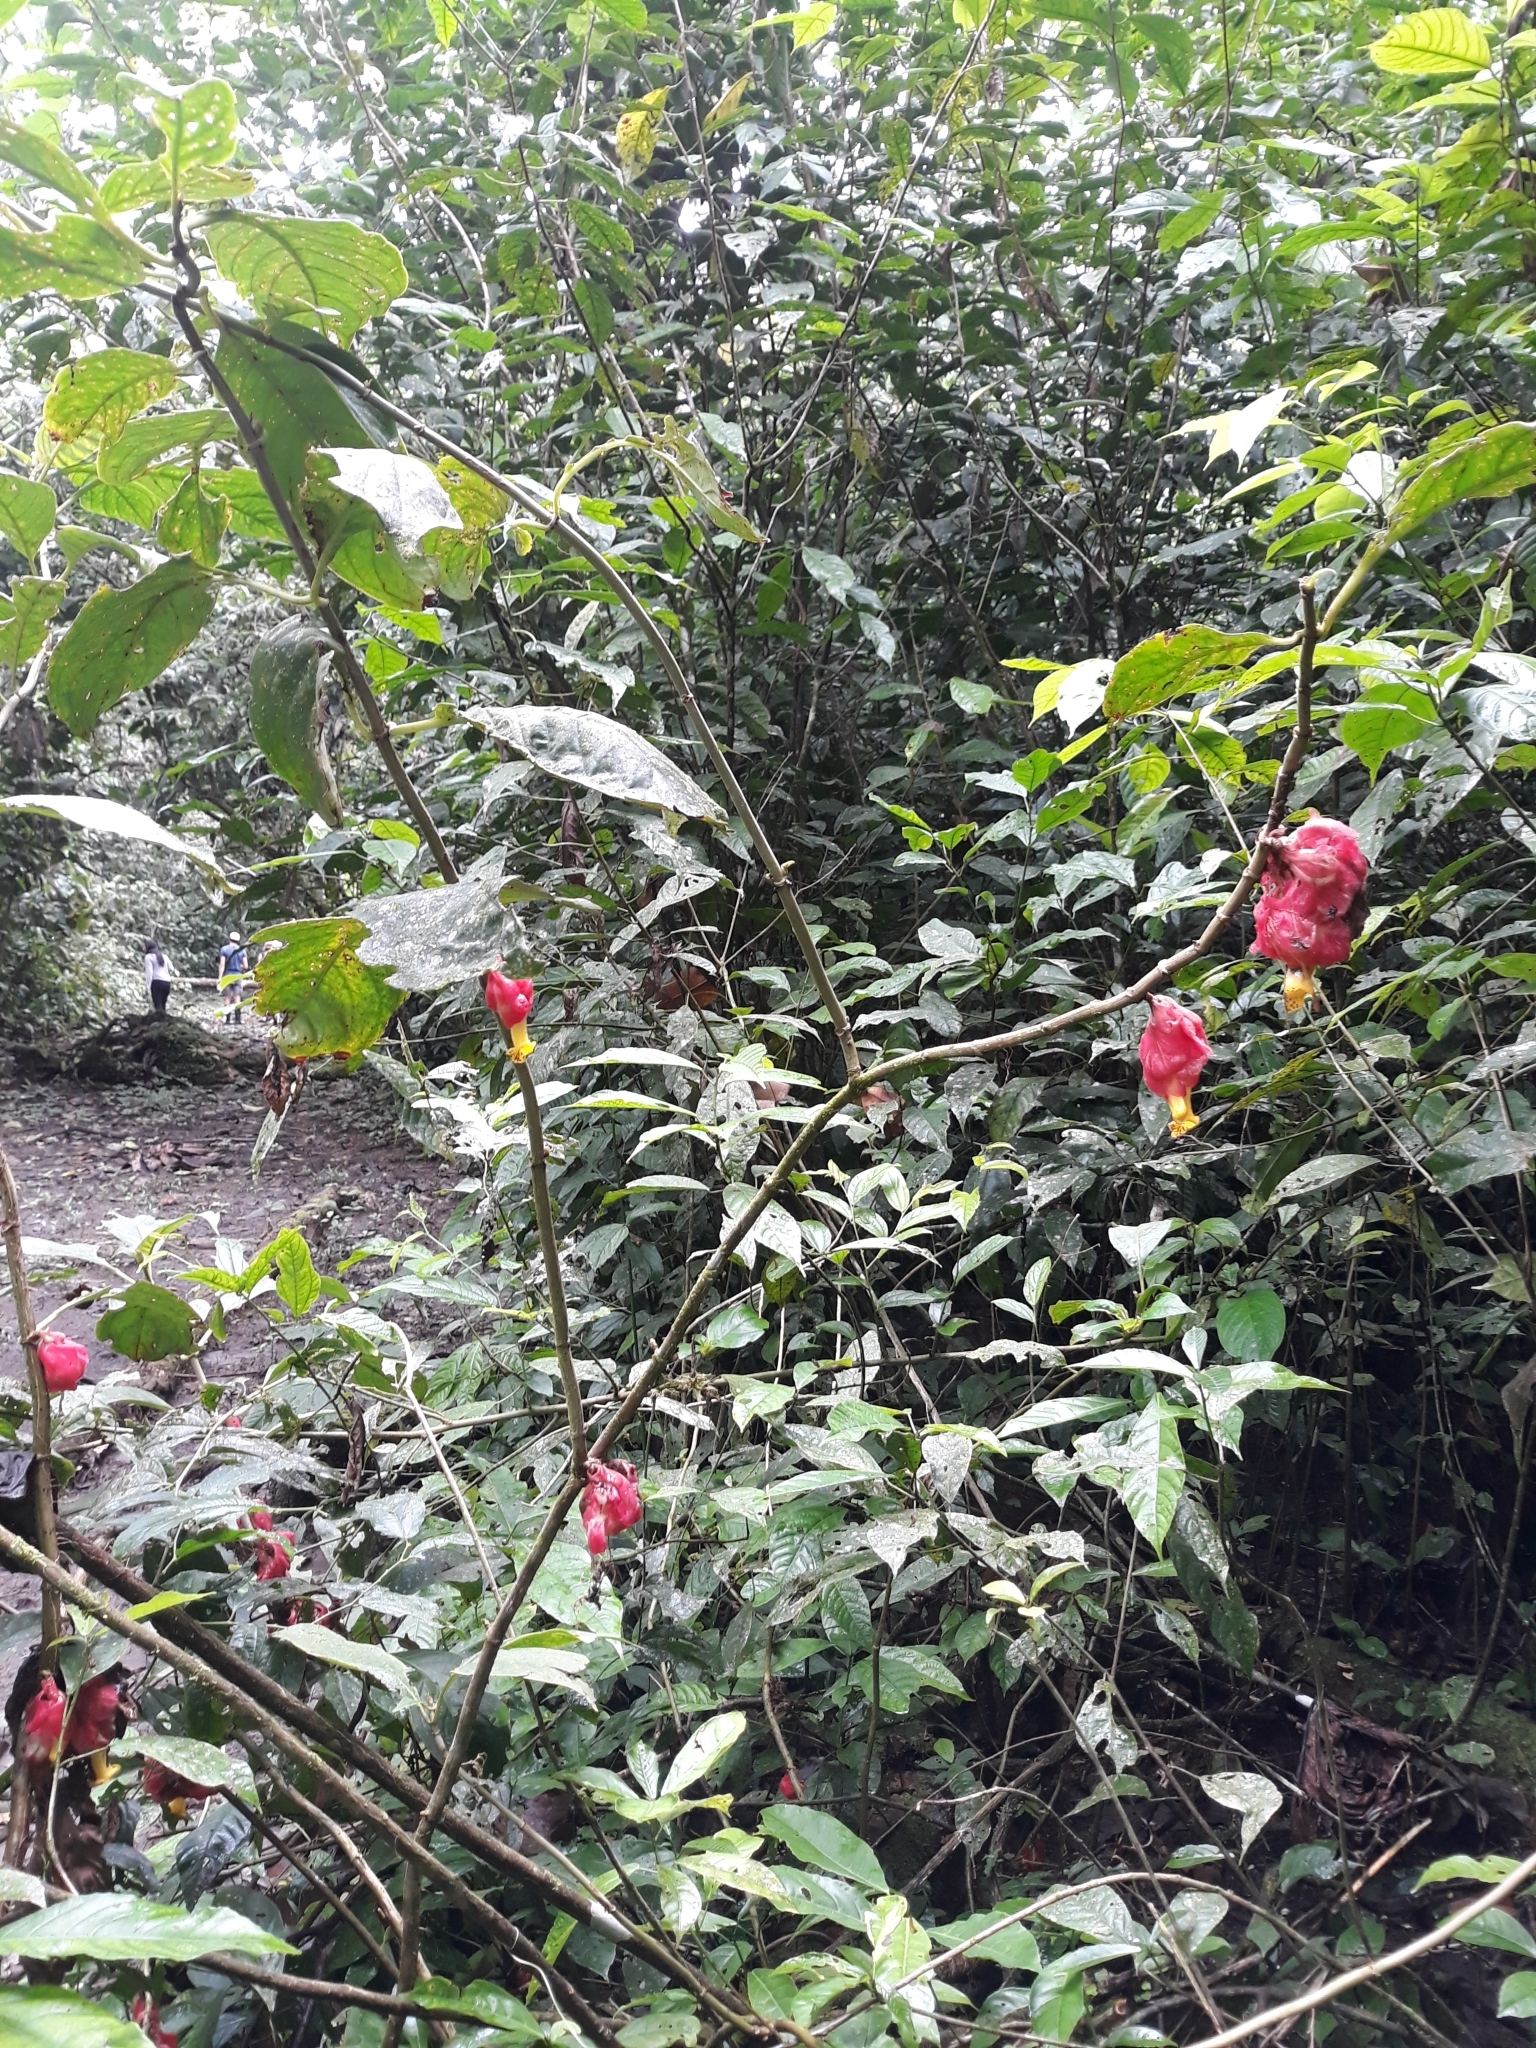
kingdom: Plantae
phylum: Tracheophyta
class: Magnoliopsida
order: Lamiales
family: Gesneriaceae
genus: Drymonia
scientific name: Drymonia coccinea
